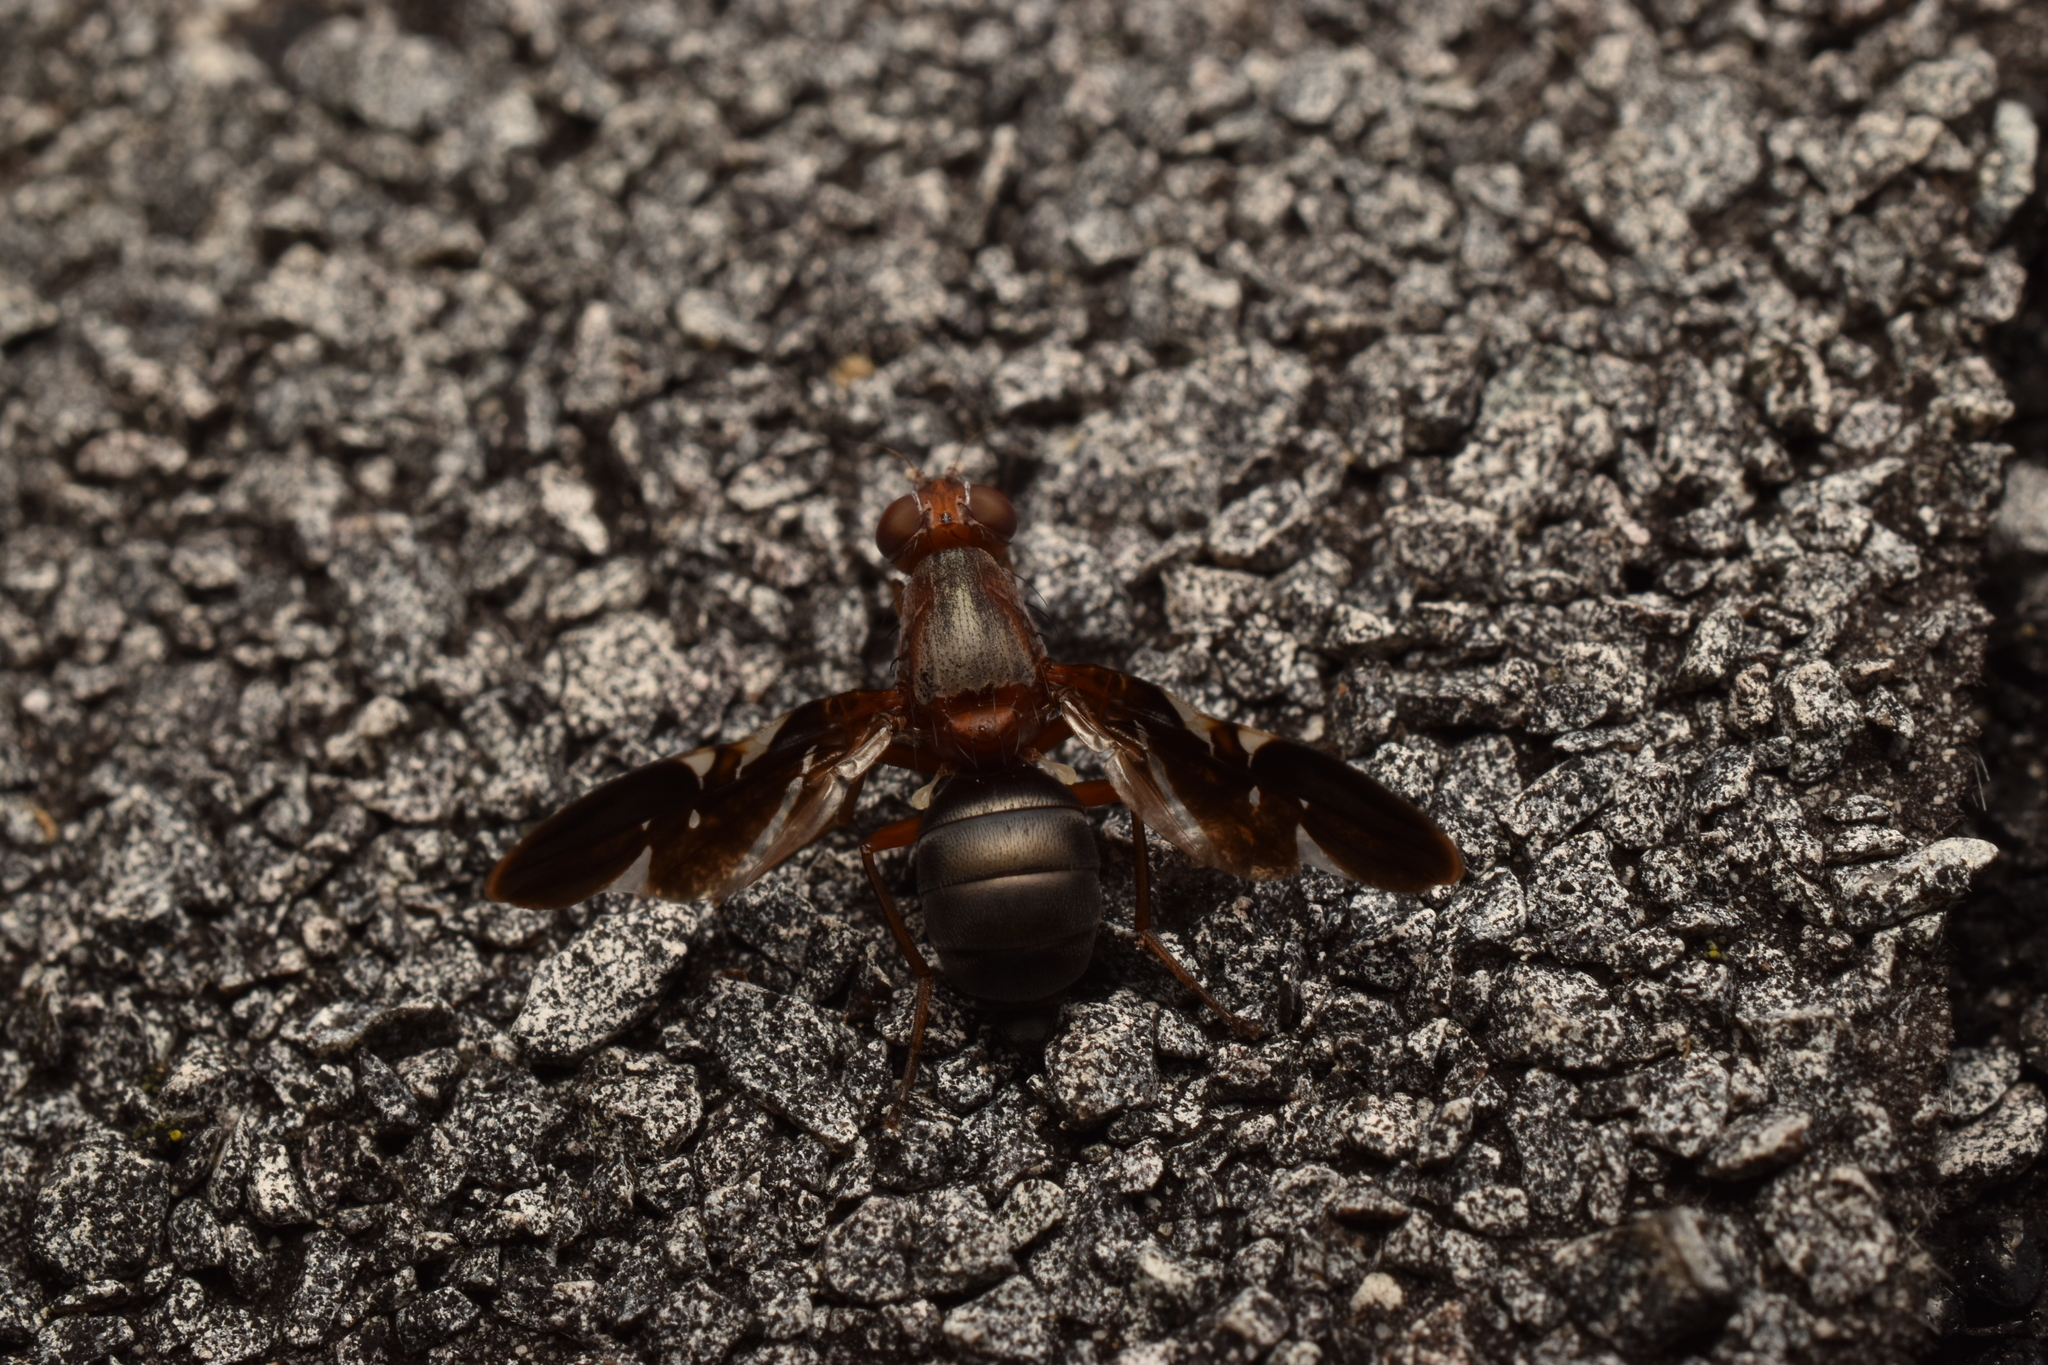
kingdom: Animalia
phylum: Arthropoda
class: Insecta
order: Diptera
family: Ulidiidae
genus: Delphinia
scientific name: Delphinia picta
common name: Common picture-winged fly
